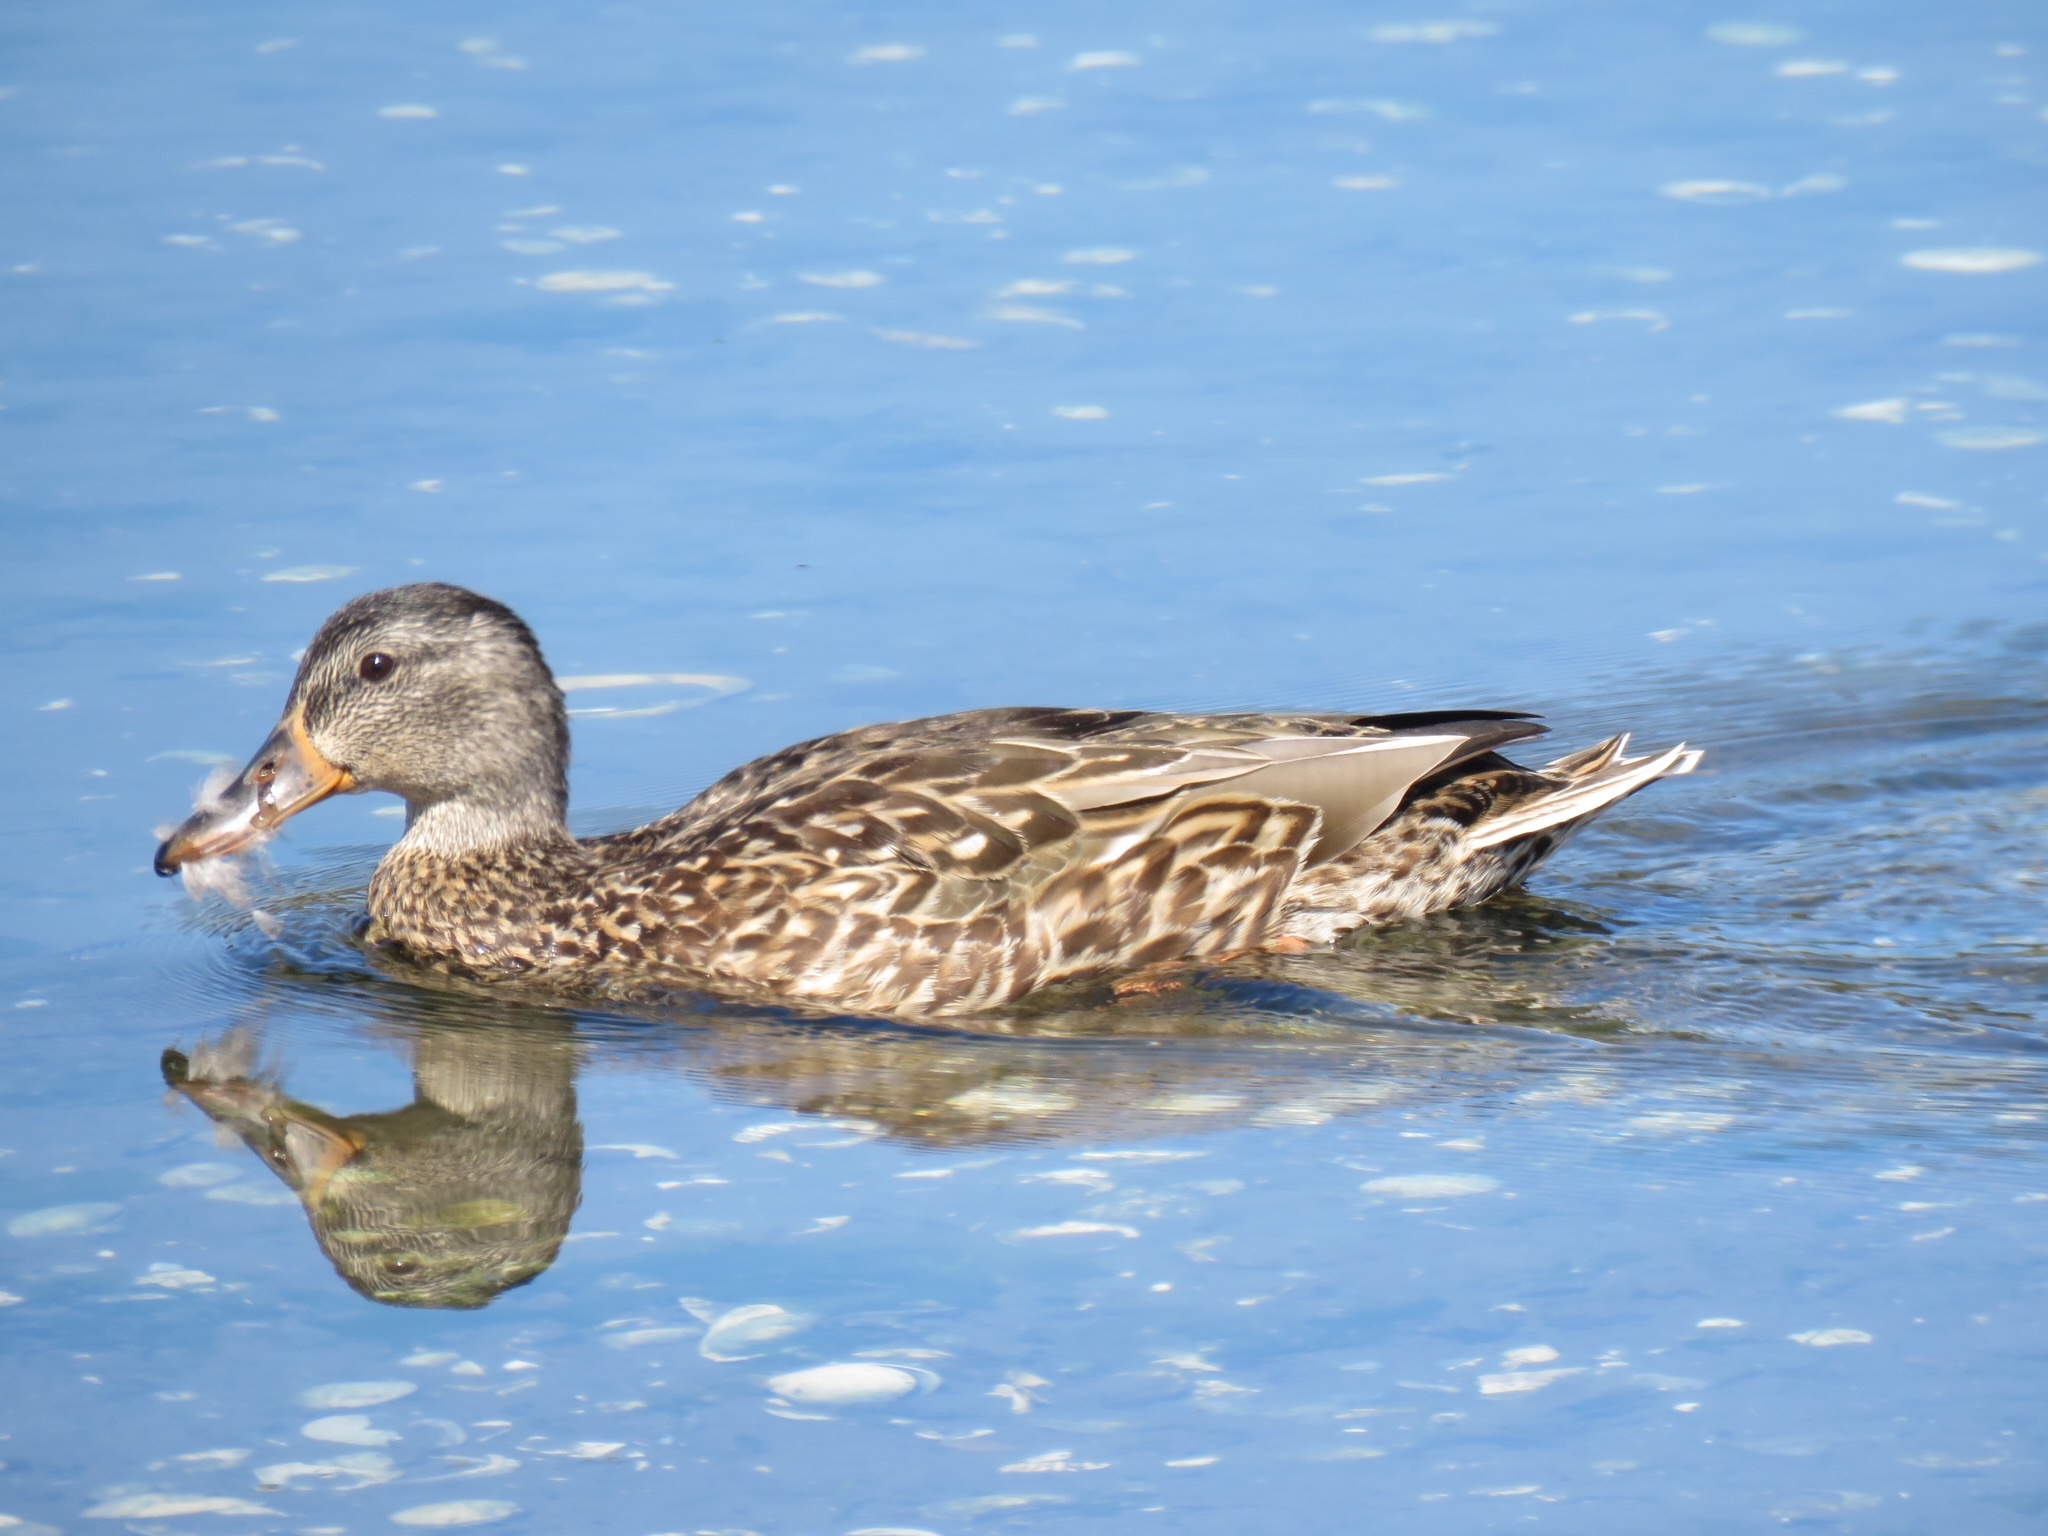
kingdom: Animalia
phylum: Chordata
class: Aves
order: Anseriformes
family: Anatidae
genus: Anas
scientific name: Anas platyrhynchos
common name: Mallard
